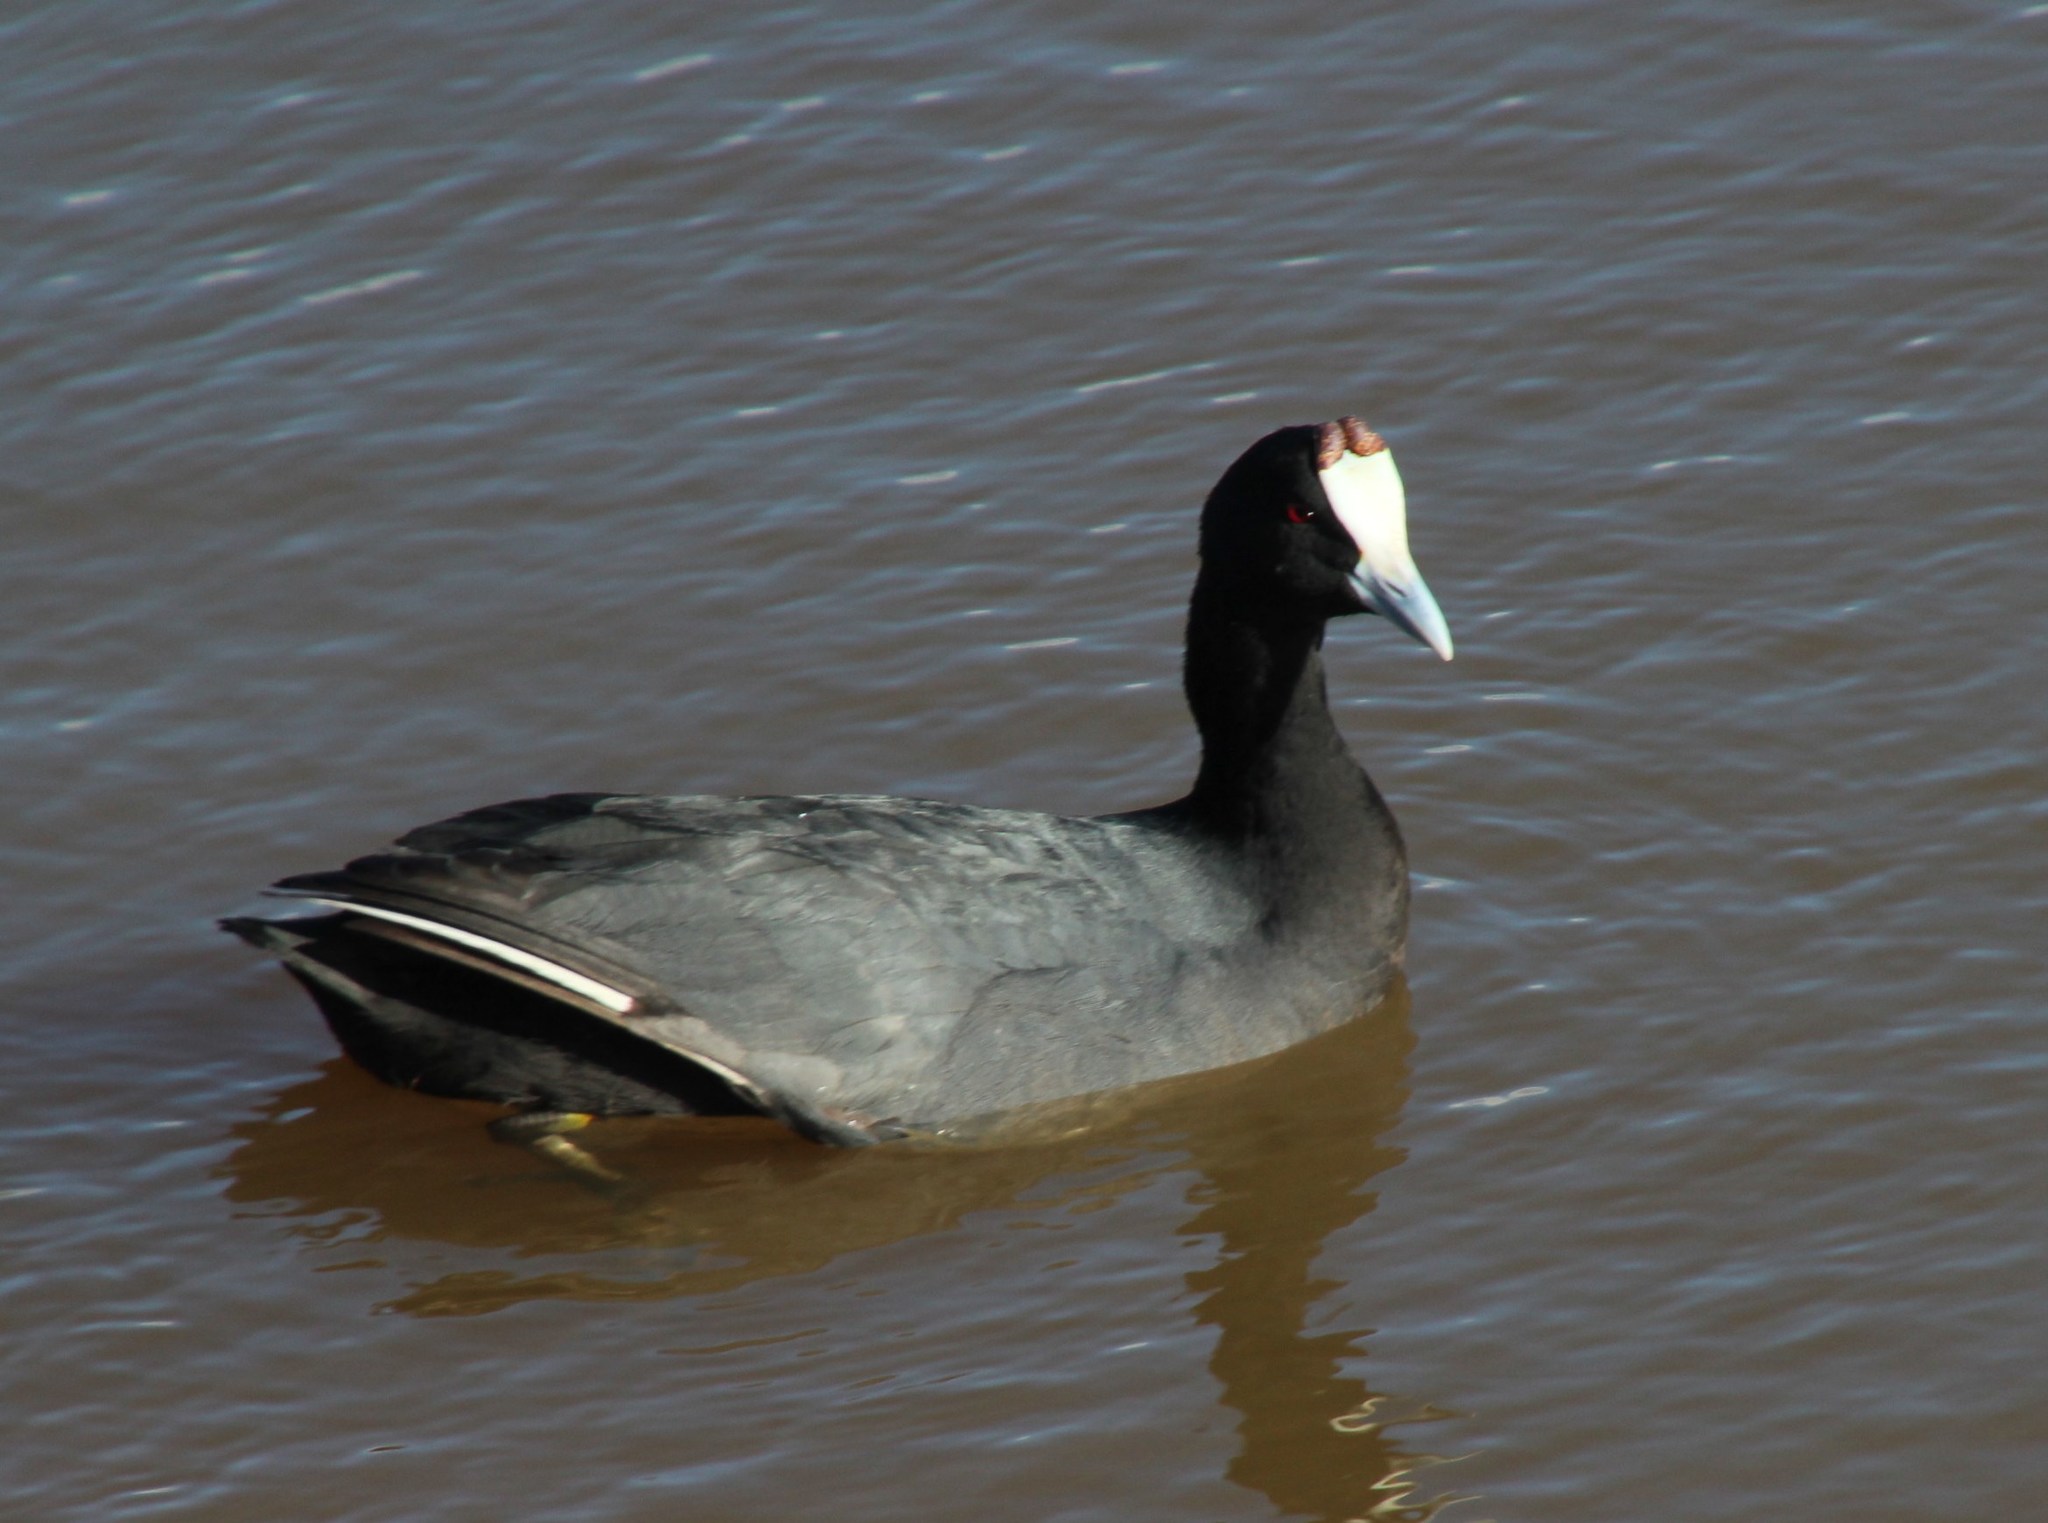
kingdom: Animalia
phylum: Chordata
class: Aves
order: Gruiformes
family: Rallidae
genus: Fulica
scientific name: Fulica cristata
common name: Red-knobbed coot
